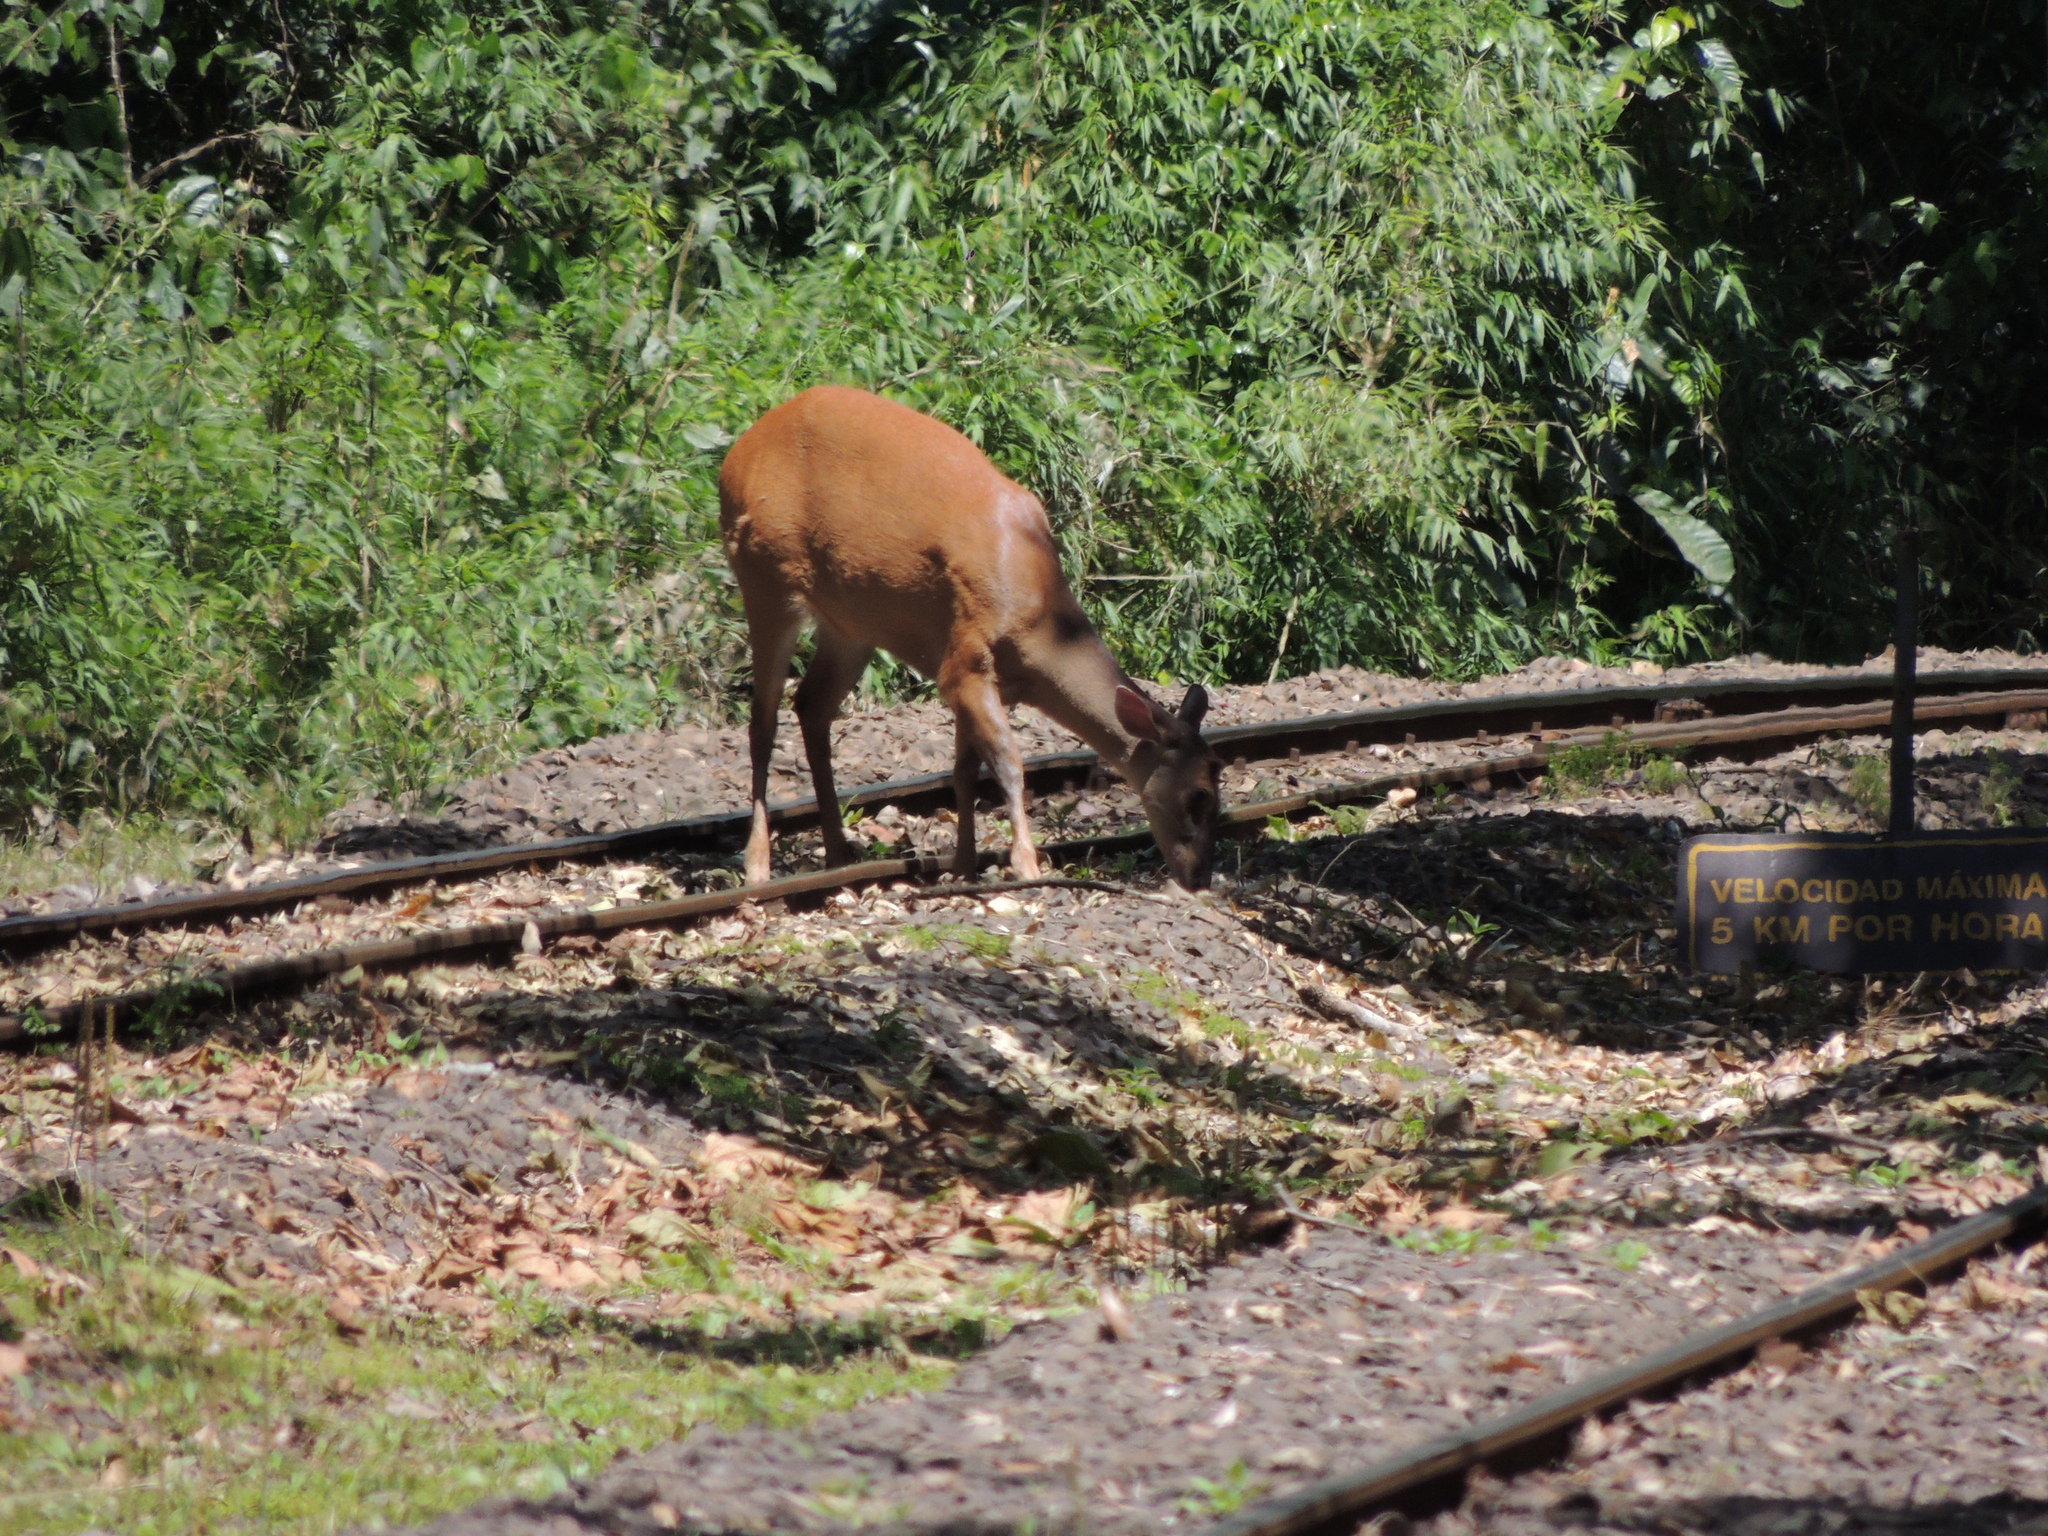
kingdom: Animalia
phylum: Chordata
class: Mammalia
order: Artiodactyla
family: Cervidae
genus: Mazama
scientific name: Mazama americana
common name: Red brocket
